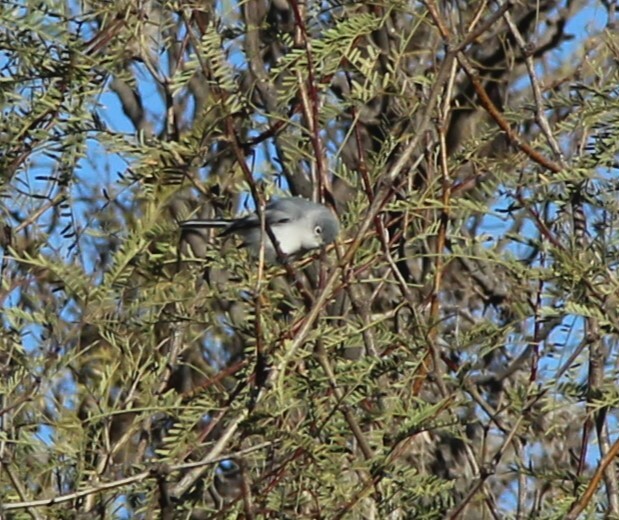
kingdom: Animalia
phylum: Chordata
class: Aves
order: Passeriformes
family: Polioptilidae
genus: Polioptila
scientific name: Polioptila caerulea
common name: Blue-gray gnatcatcher
